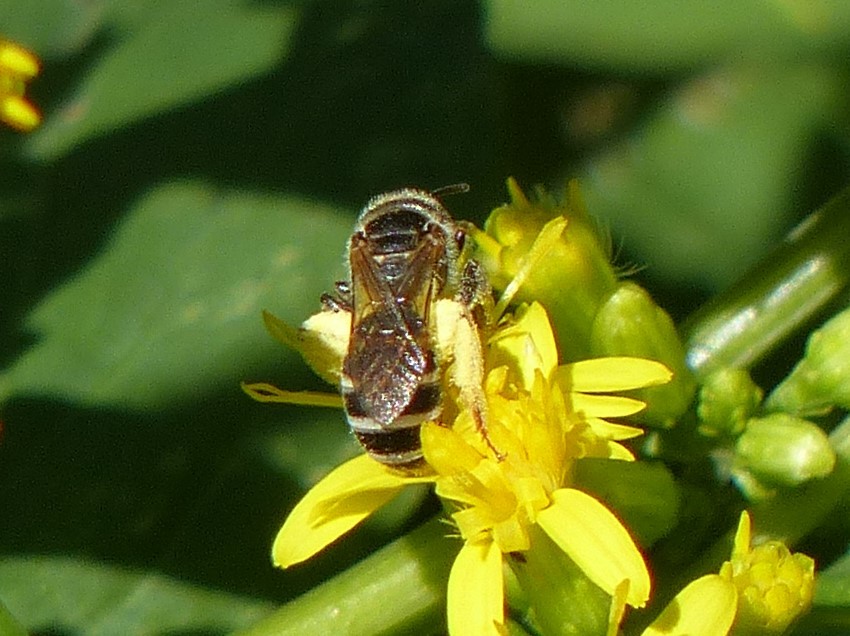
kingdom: Animalia
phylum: Arthropoda
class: Insecta
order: Hymenoptera
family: Halictidae
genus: Halictus
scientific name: Halictus ligatus
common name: Ligated furrow bee
